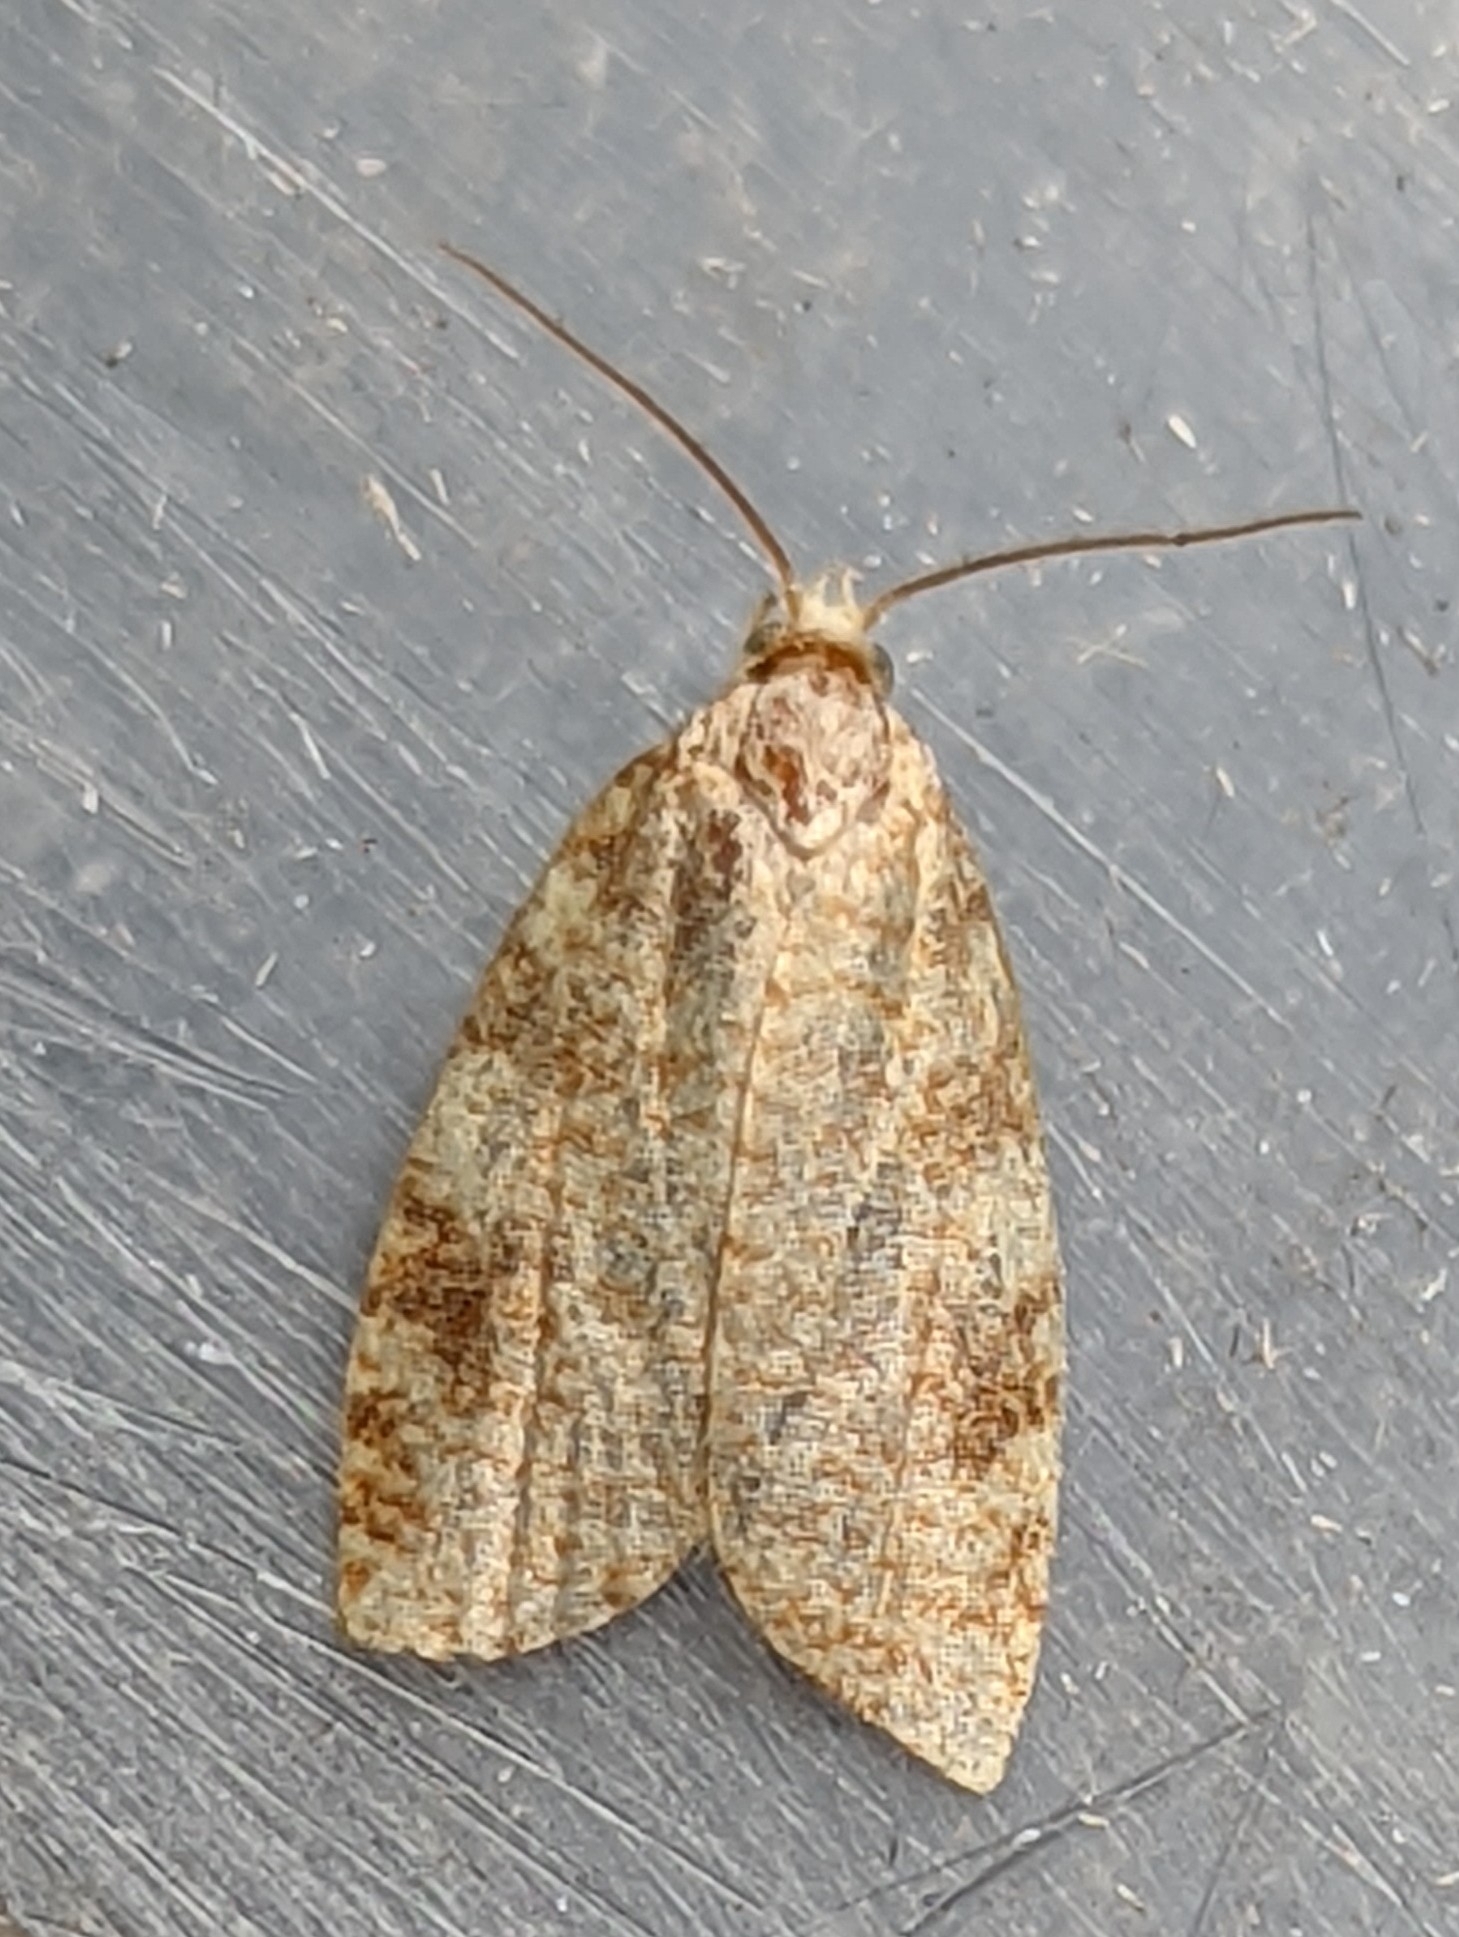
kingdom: Animalia
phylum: Arthropoda
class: Insecta
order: Lepidoptera
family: Tortricidae
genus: Aleimma
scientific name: Aleimma loeflingiana
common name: Yellow oak button
